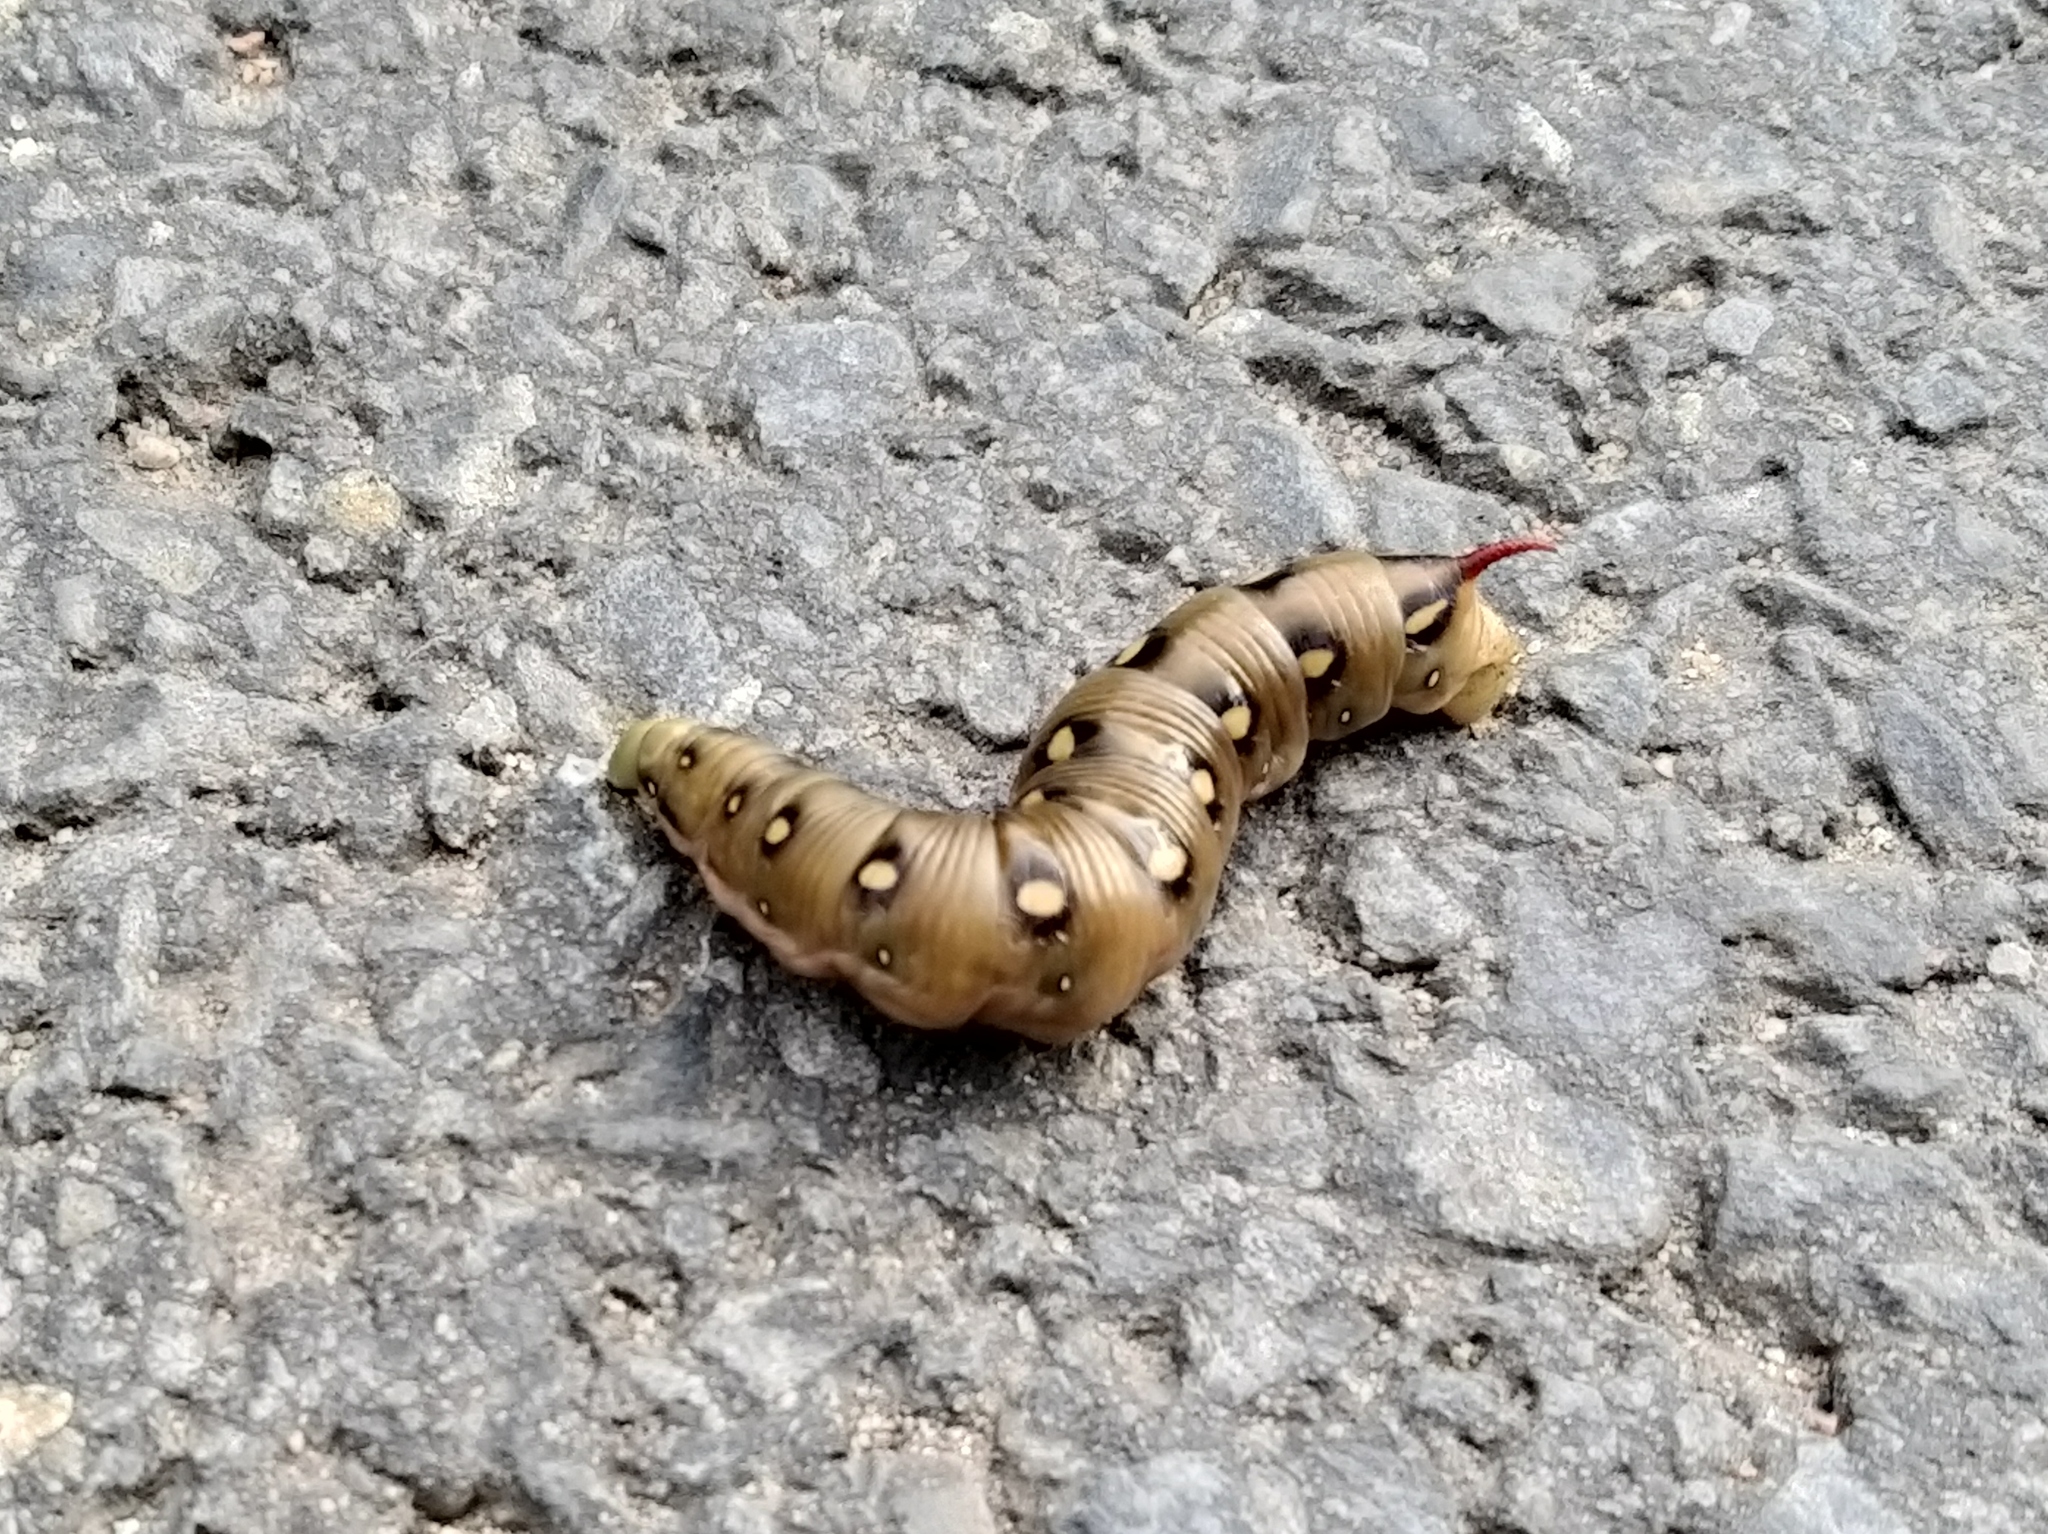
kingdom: Animalia
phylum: Arthropoda
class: Insecta
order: Lepidoptera
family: Sphingidae
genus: Hyles
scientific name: Hyles gallii
